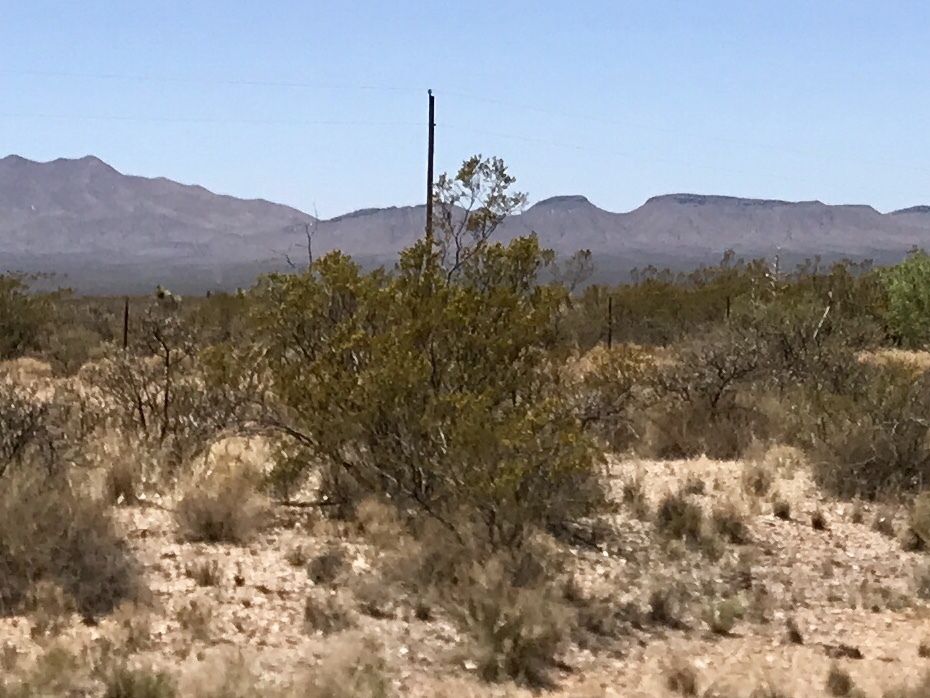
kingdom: Plantae
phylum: Tracheophyta
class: Magnoliopsida
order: Zygophyllales
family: Zygophyllaceae
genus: Larrea
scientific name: Larrea tridentata
